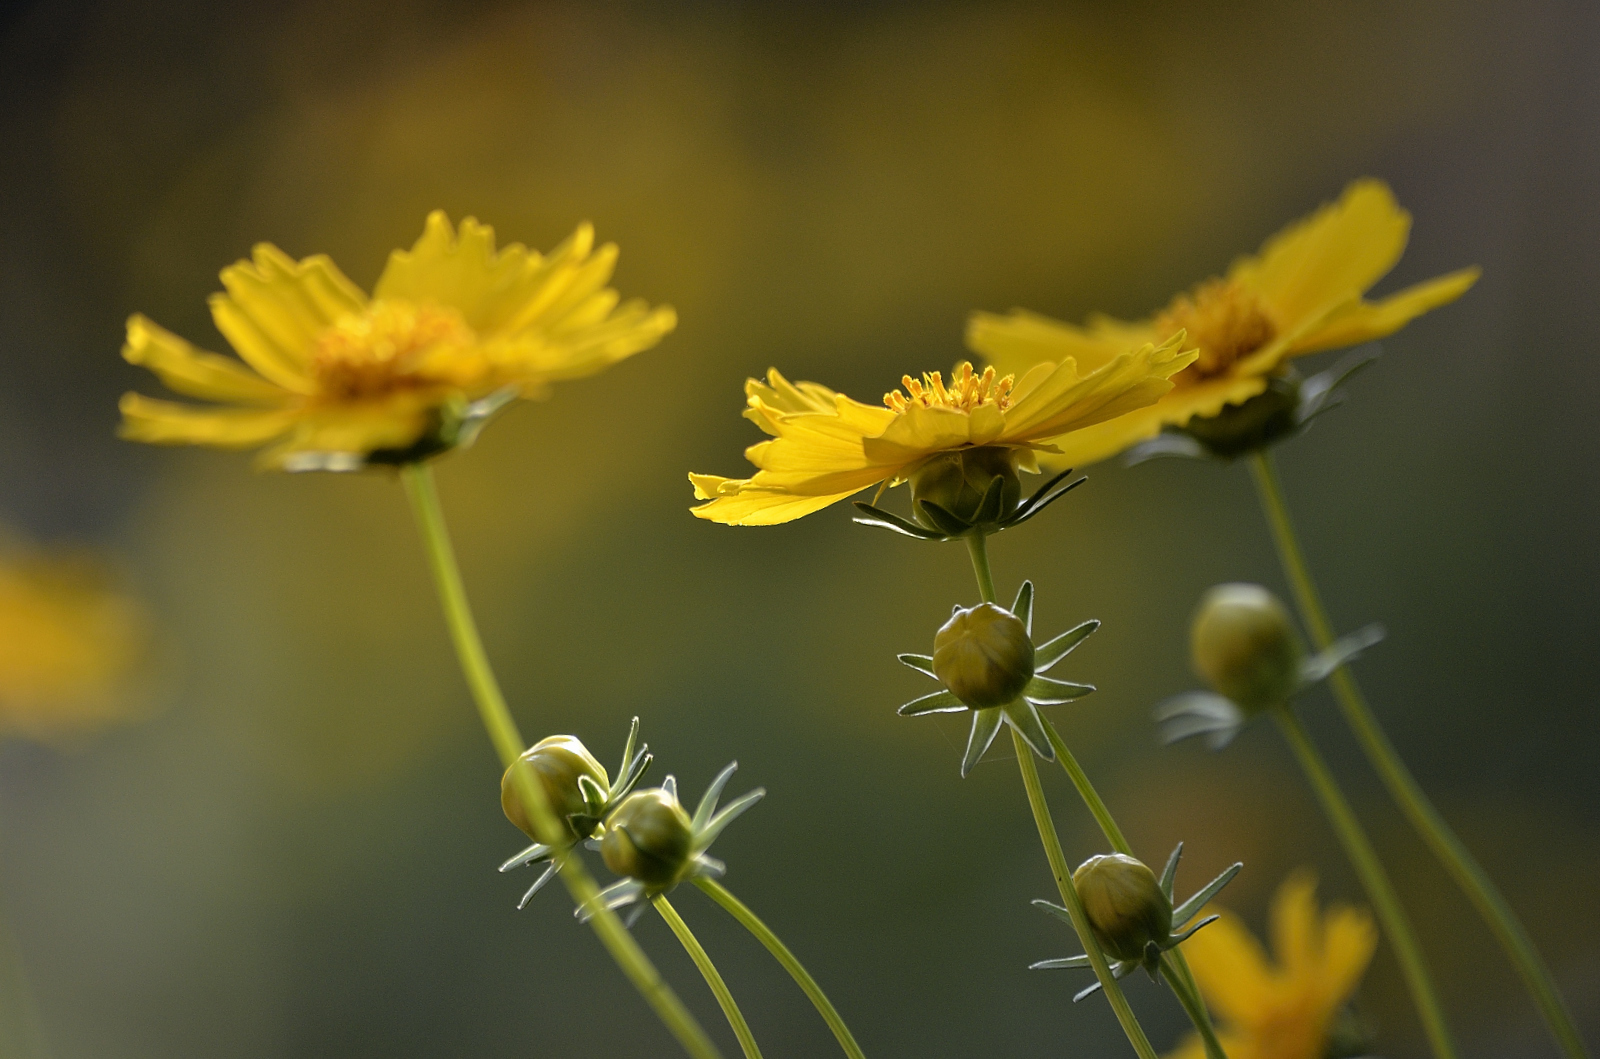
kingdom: Plantae
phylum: Tracheophyta
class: Magnoliopsida
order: Asterales
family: Asteraceae
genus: Coreopsis
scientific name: Coreopsis lanceolata
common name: Garden coreopsis
